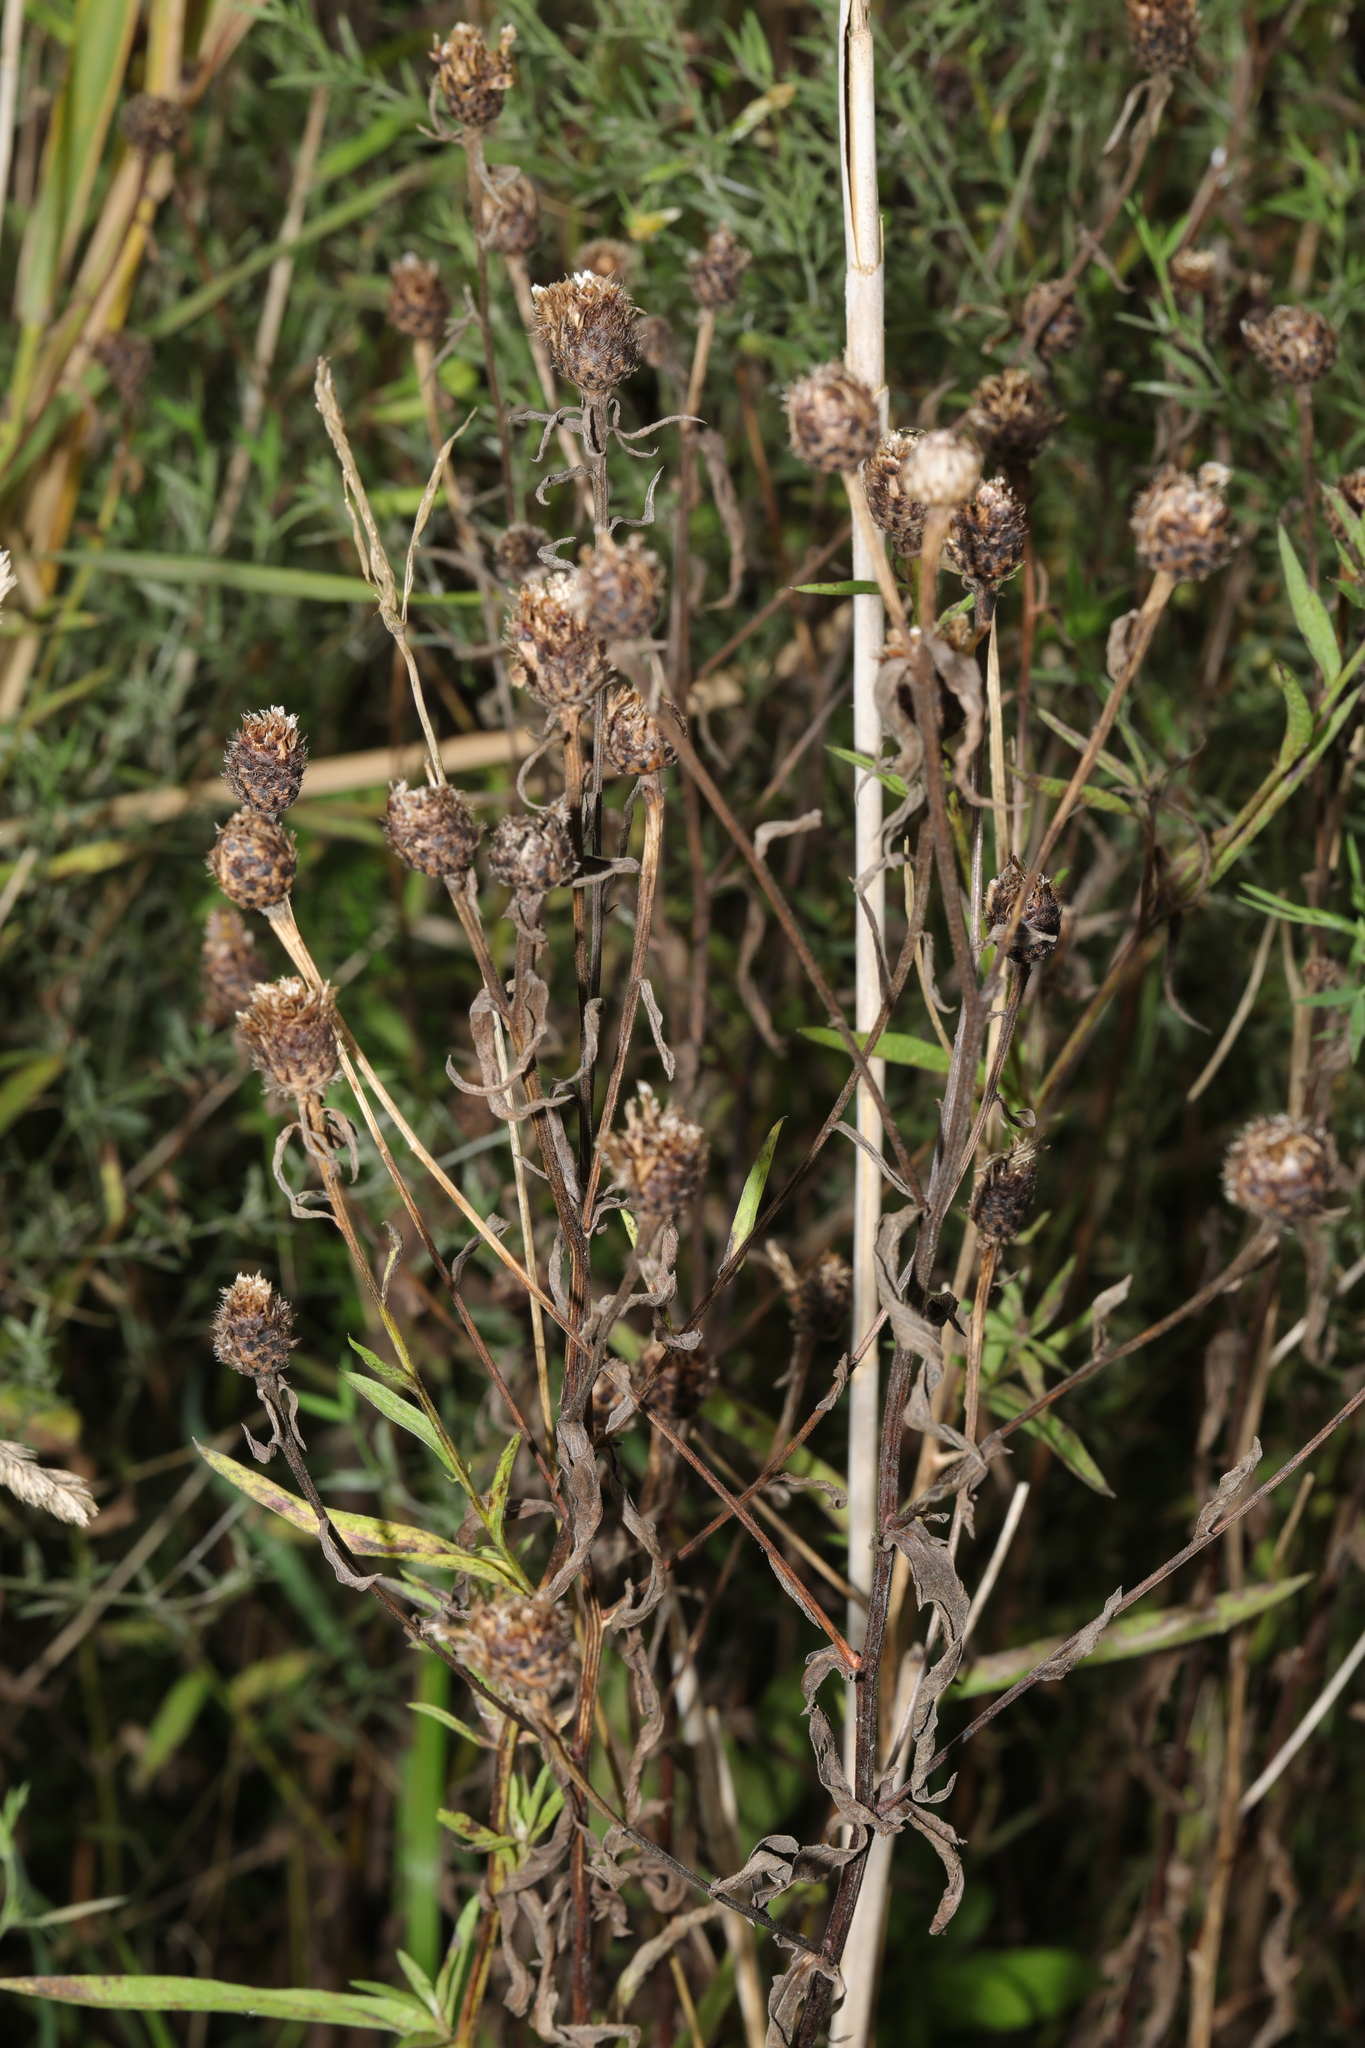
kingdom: Plantae
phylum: Tracheophyta
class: Magnoliopsida
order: Asterales
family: Asteraceae
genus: Centaurea
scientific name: Centaurea nigra
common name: Lesser knapweed
